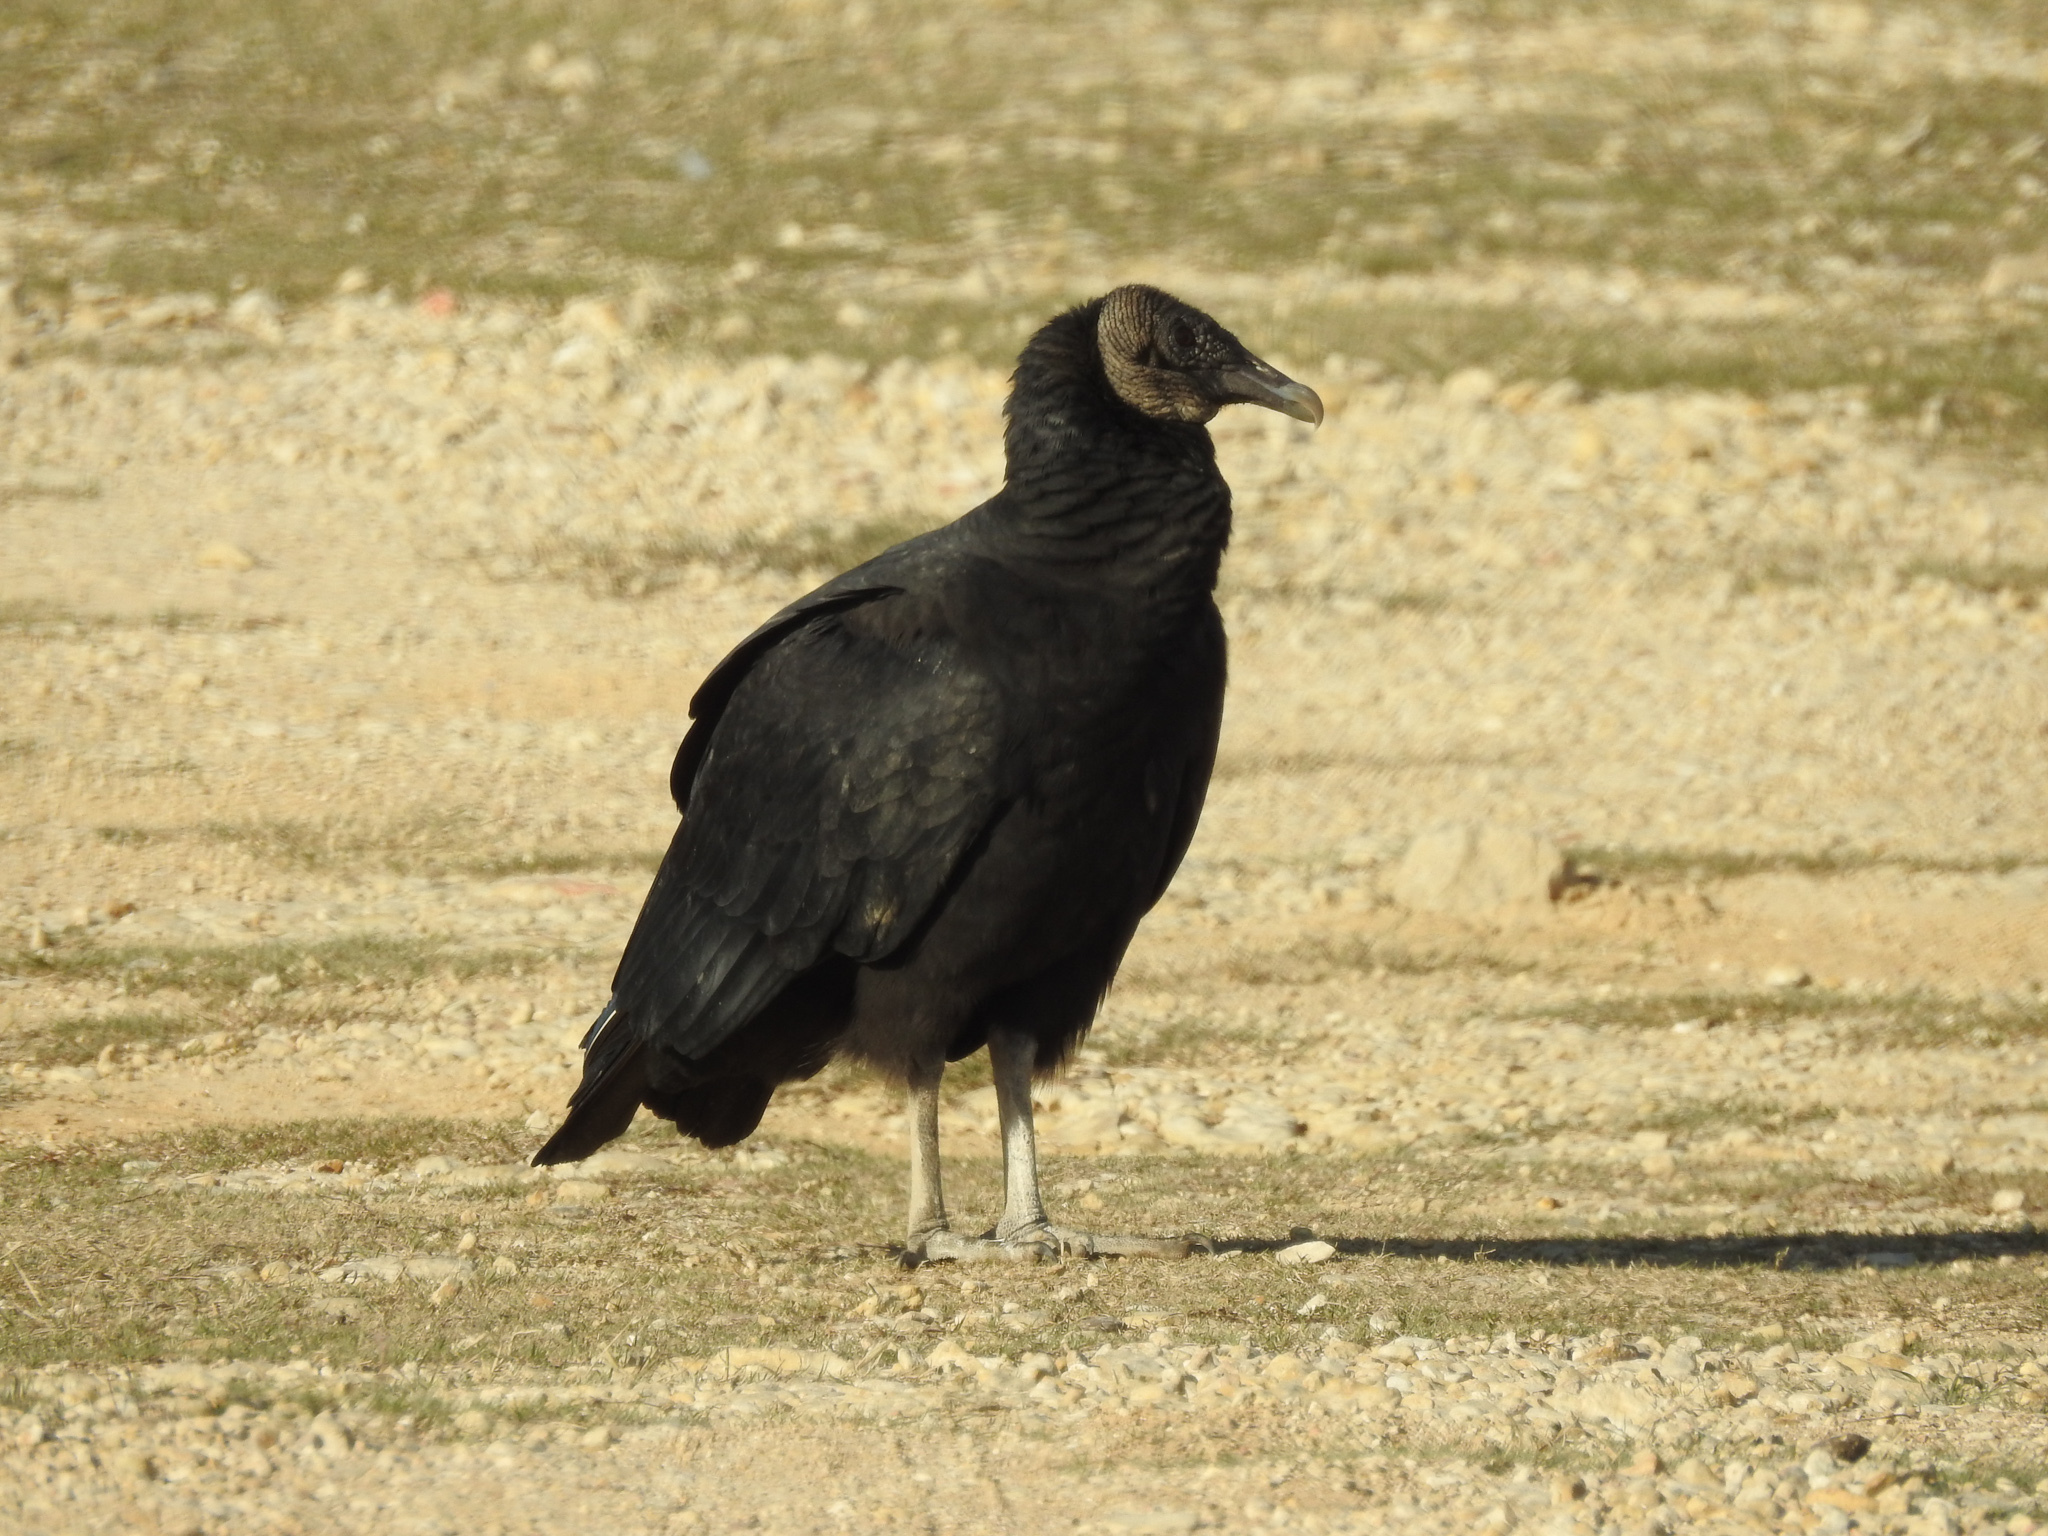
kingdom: Animalia
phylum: Chordata
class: Aves
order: Accipitriformes
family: Cathartidae
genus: Coragyps
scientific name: Coragyps atratus
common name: Black vulture
